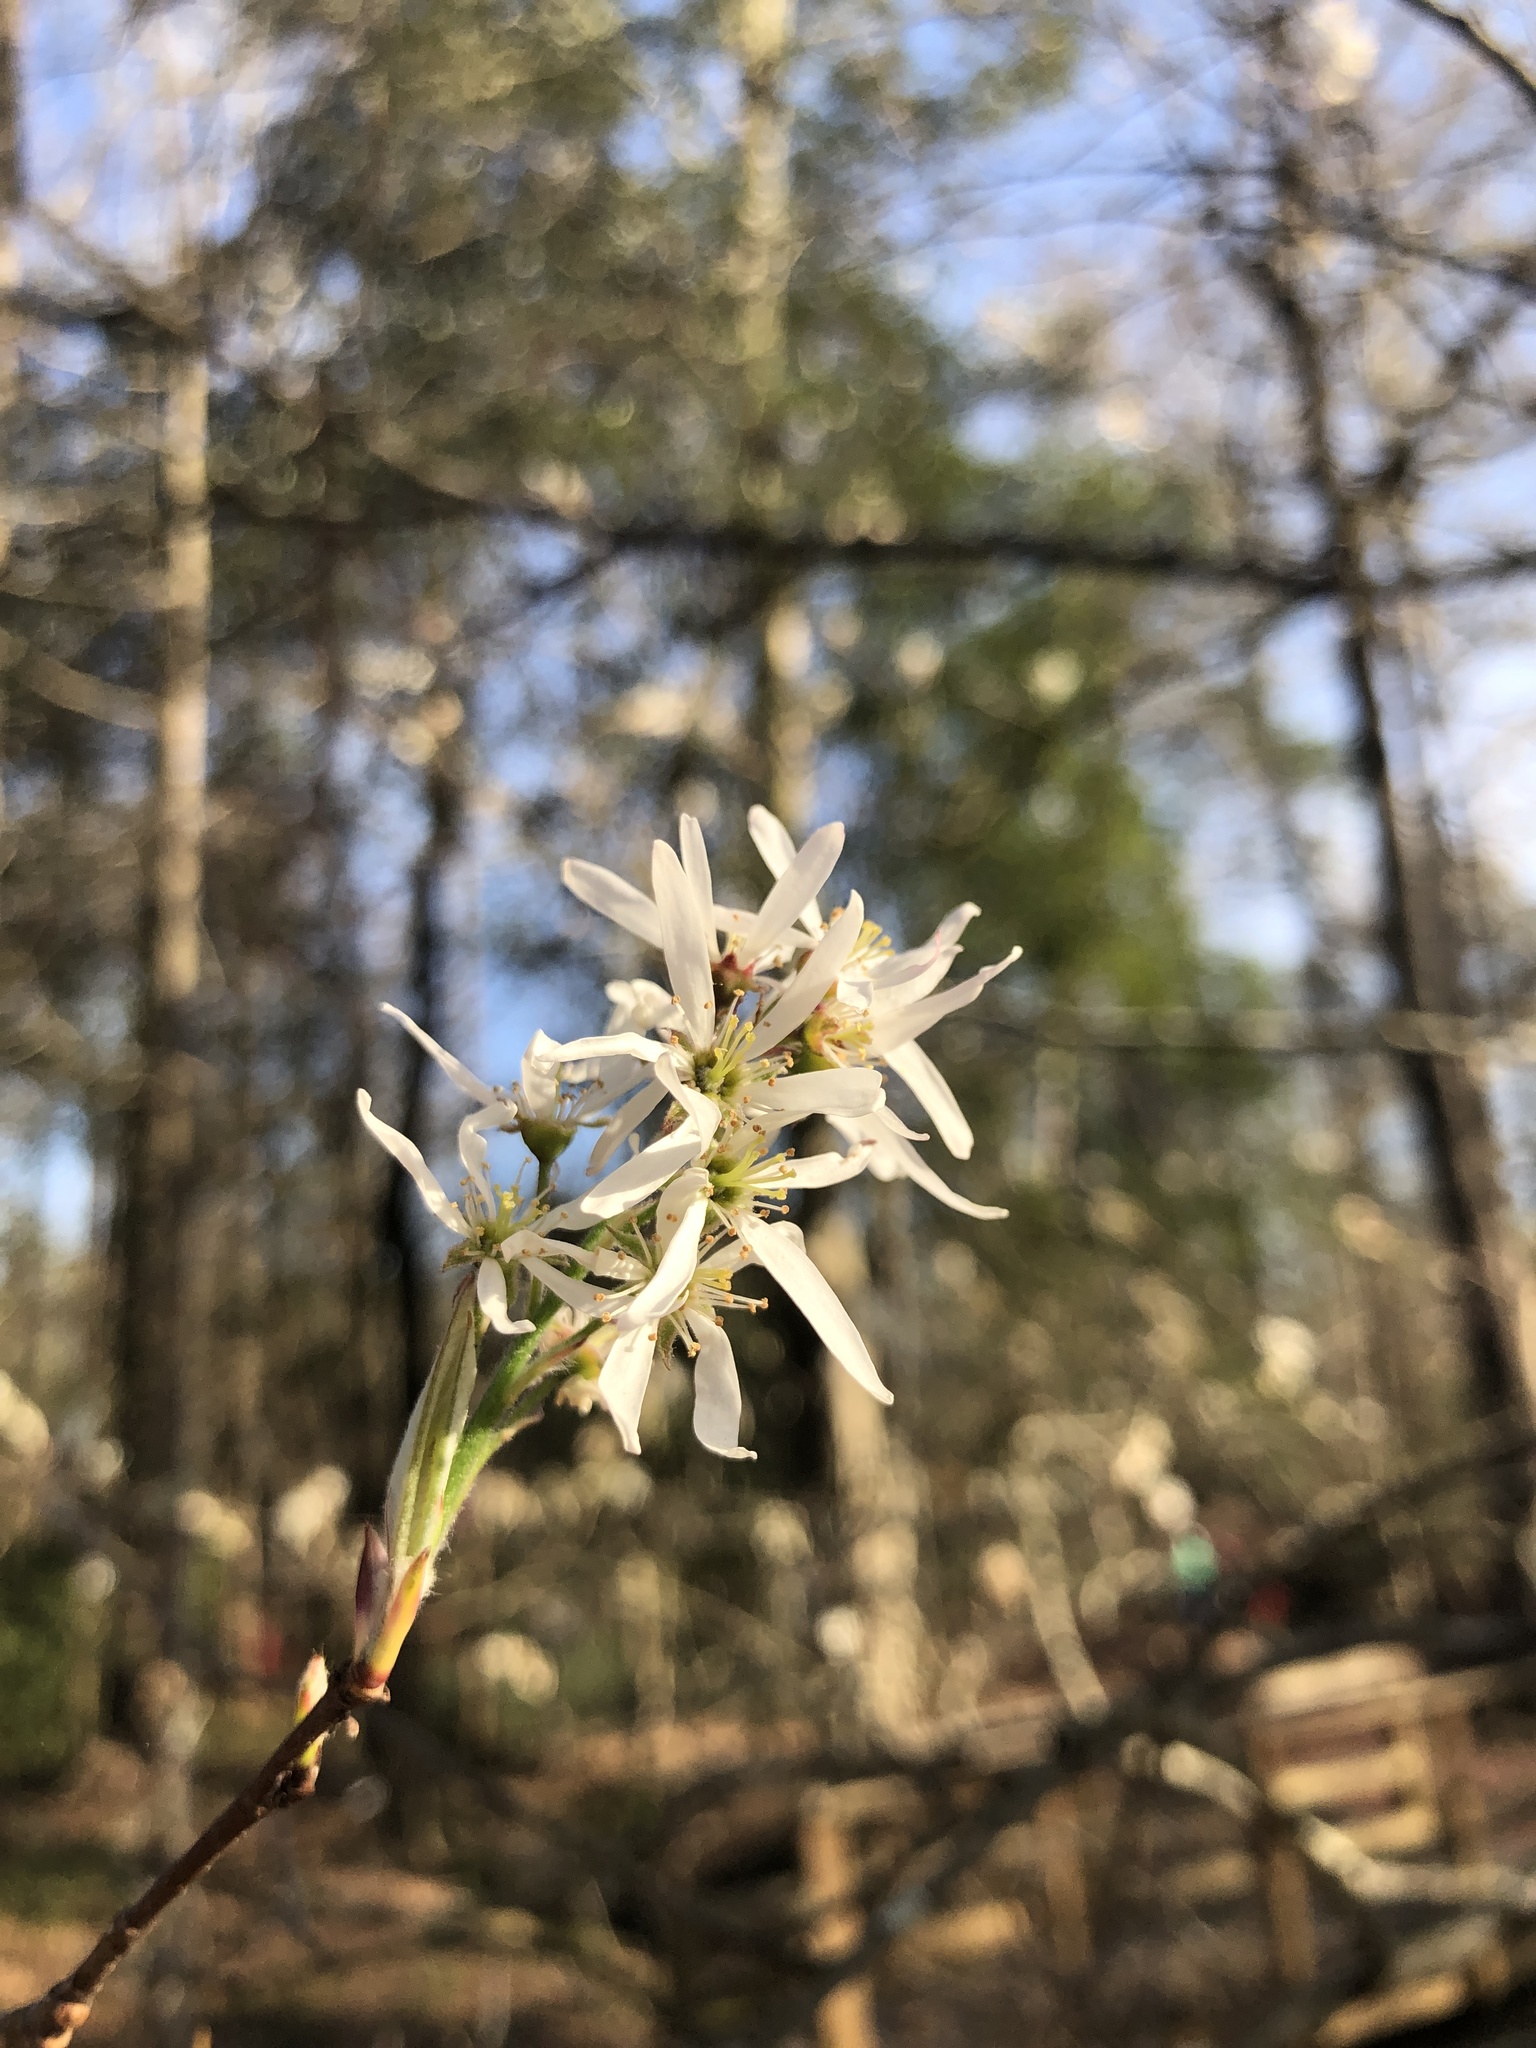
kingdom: Plantae
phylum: Tracheophyta
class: Magnoliopsida
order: Rosales
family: Rosaceae
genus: Amelanchier
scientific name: Amelanchier arborea
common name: Downy serviceberry
